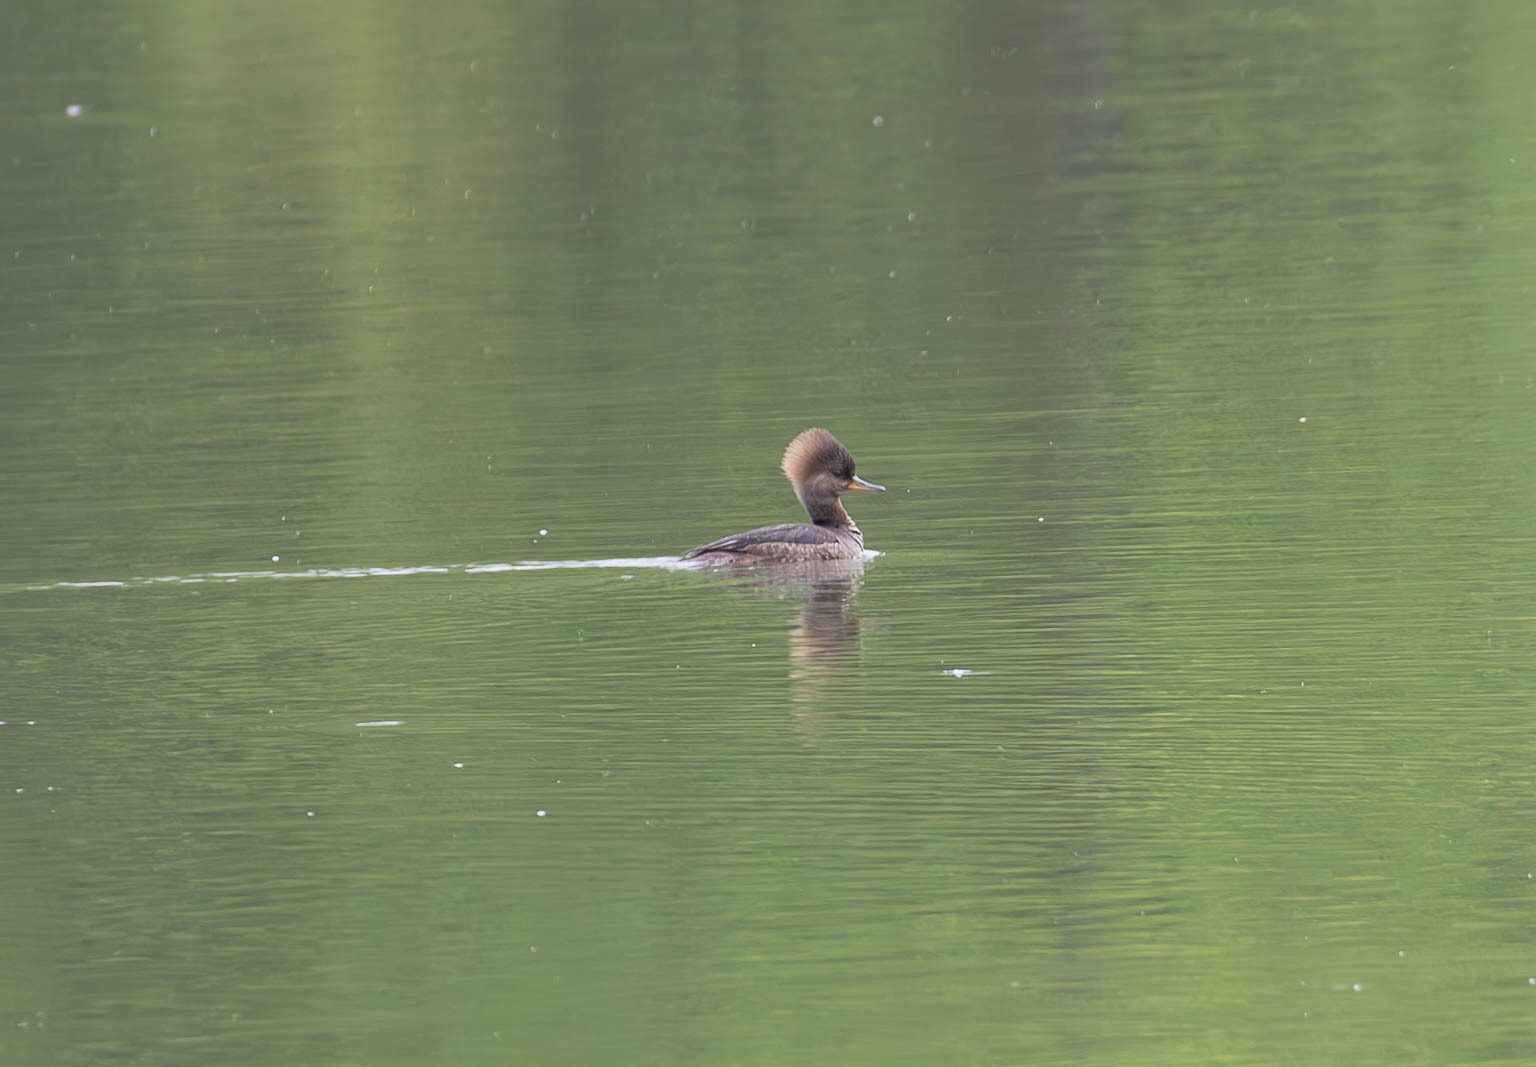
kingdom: Animalia
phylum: Chordata
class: Aves
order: Anseriformes
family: Anatidae
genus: Lophodytes
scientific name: Lophodytes cucullatus
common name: Hooded merganser
